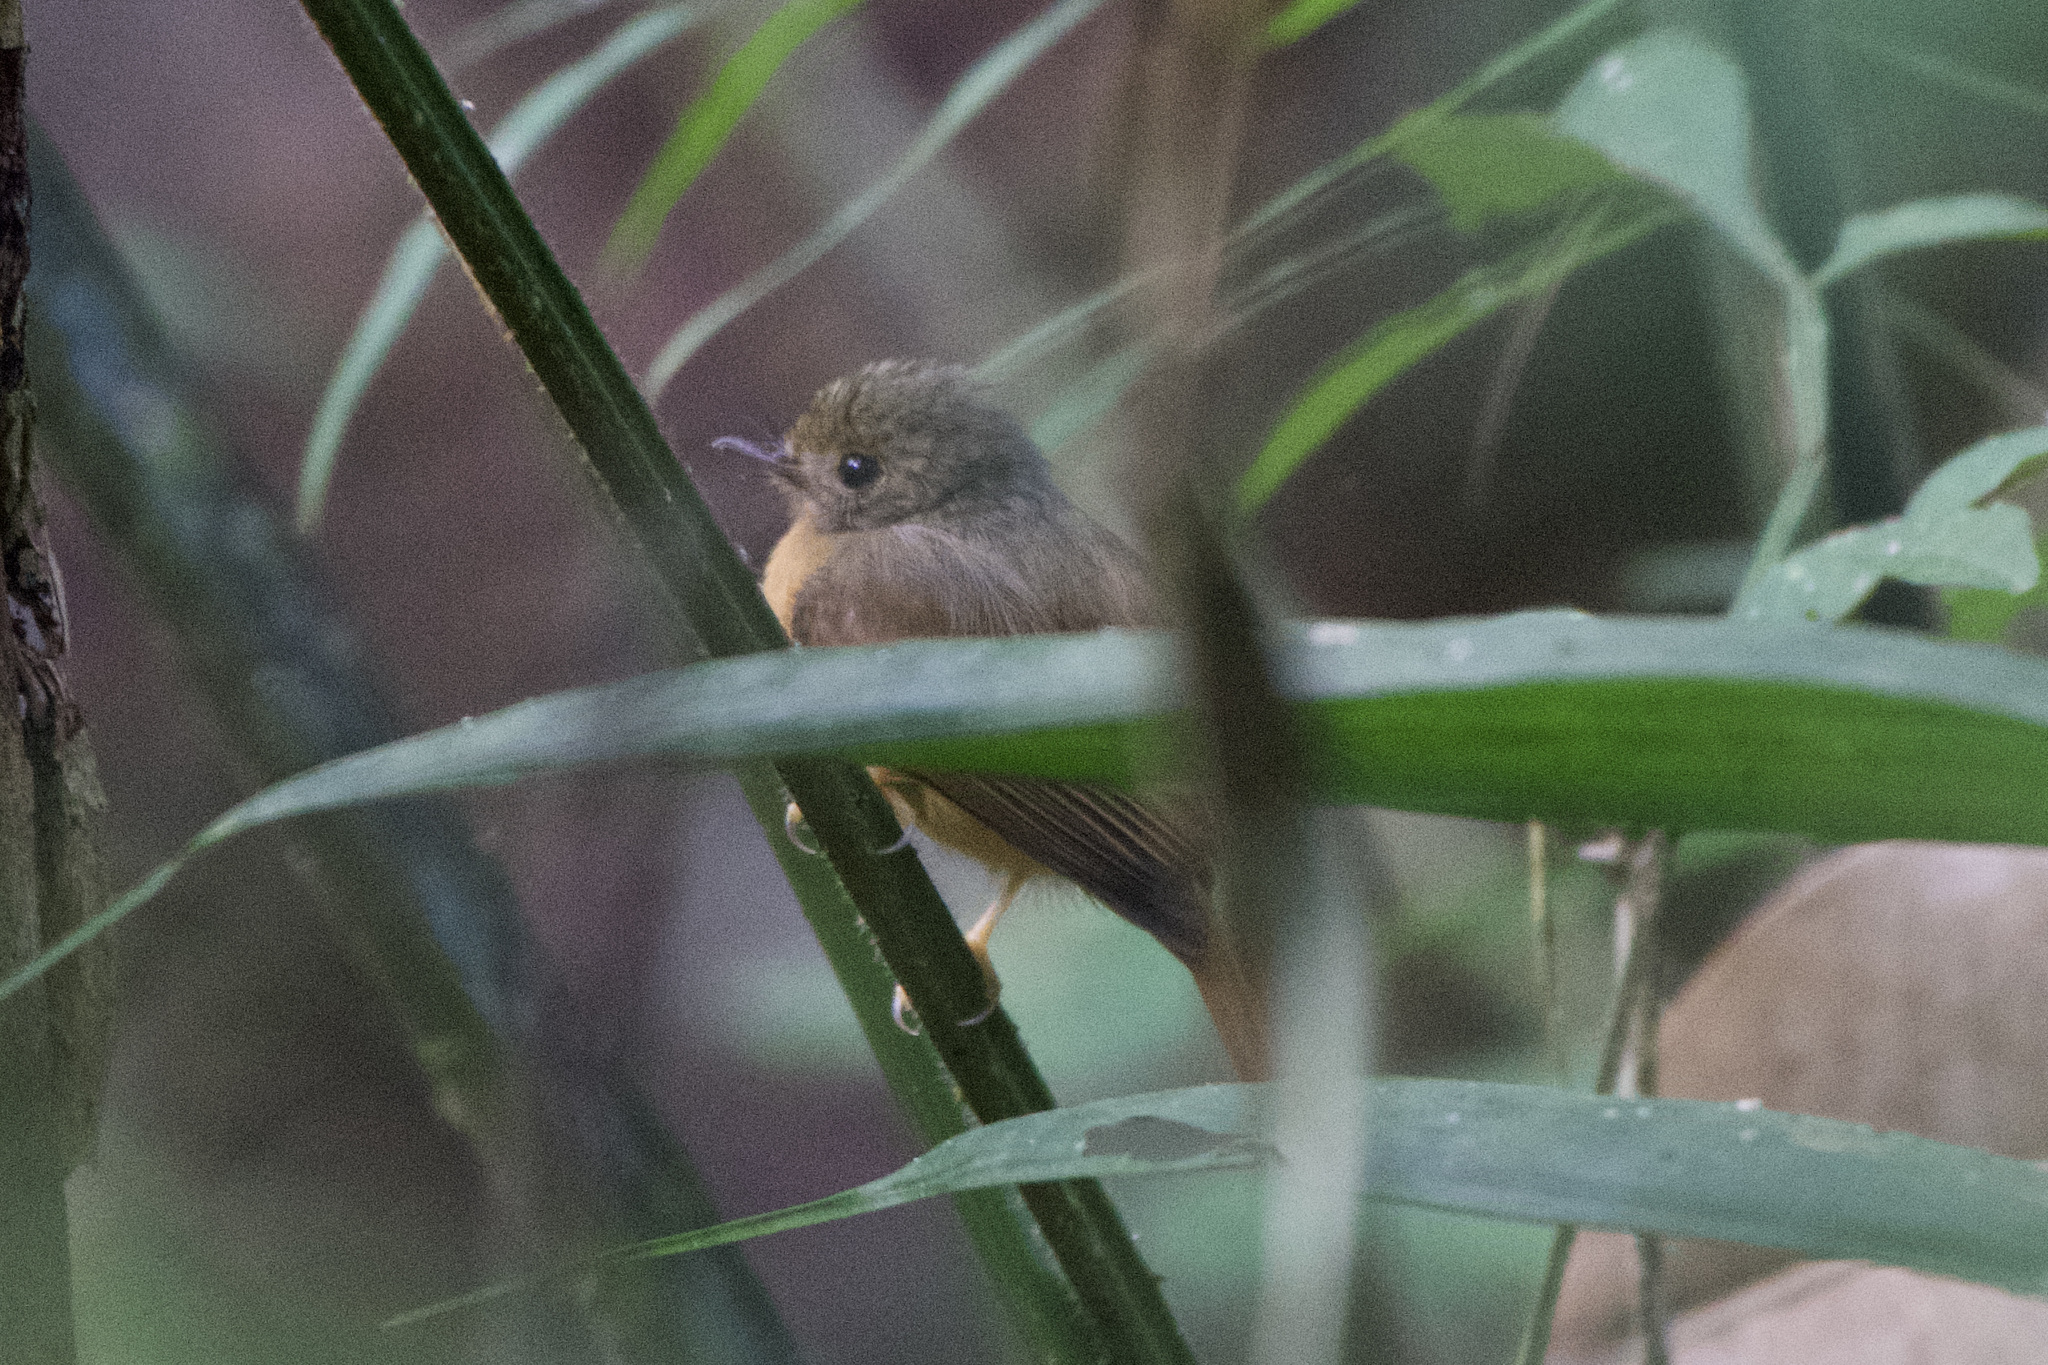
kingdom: Animalia
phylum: Chordata
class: Aves
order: Passeriformes
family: Tyrannidae
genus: Terenotriccus
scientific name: Terenotriccus erythrurus
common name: Ruddy-tailed flycatcher
